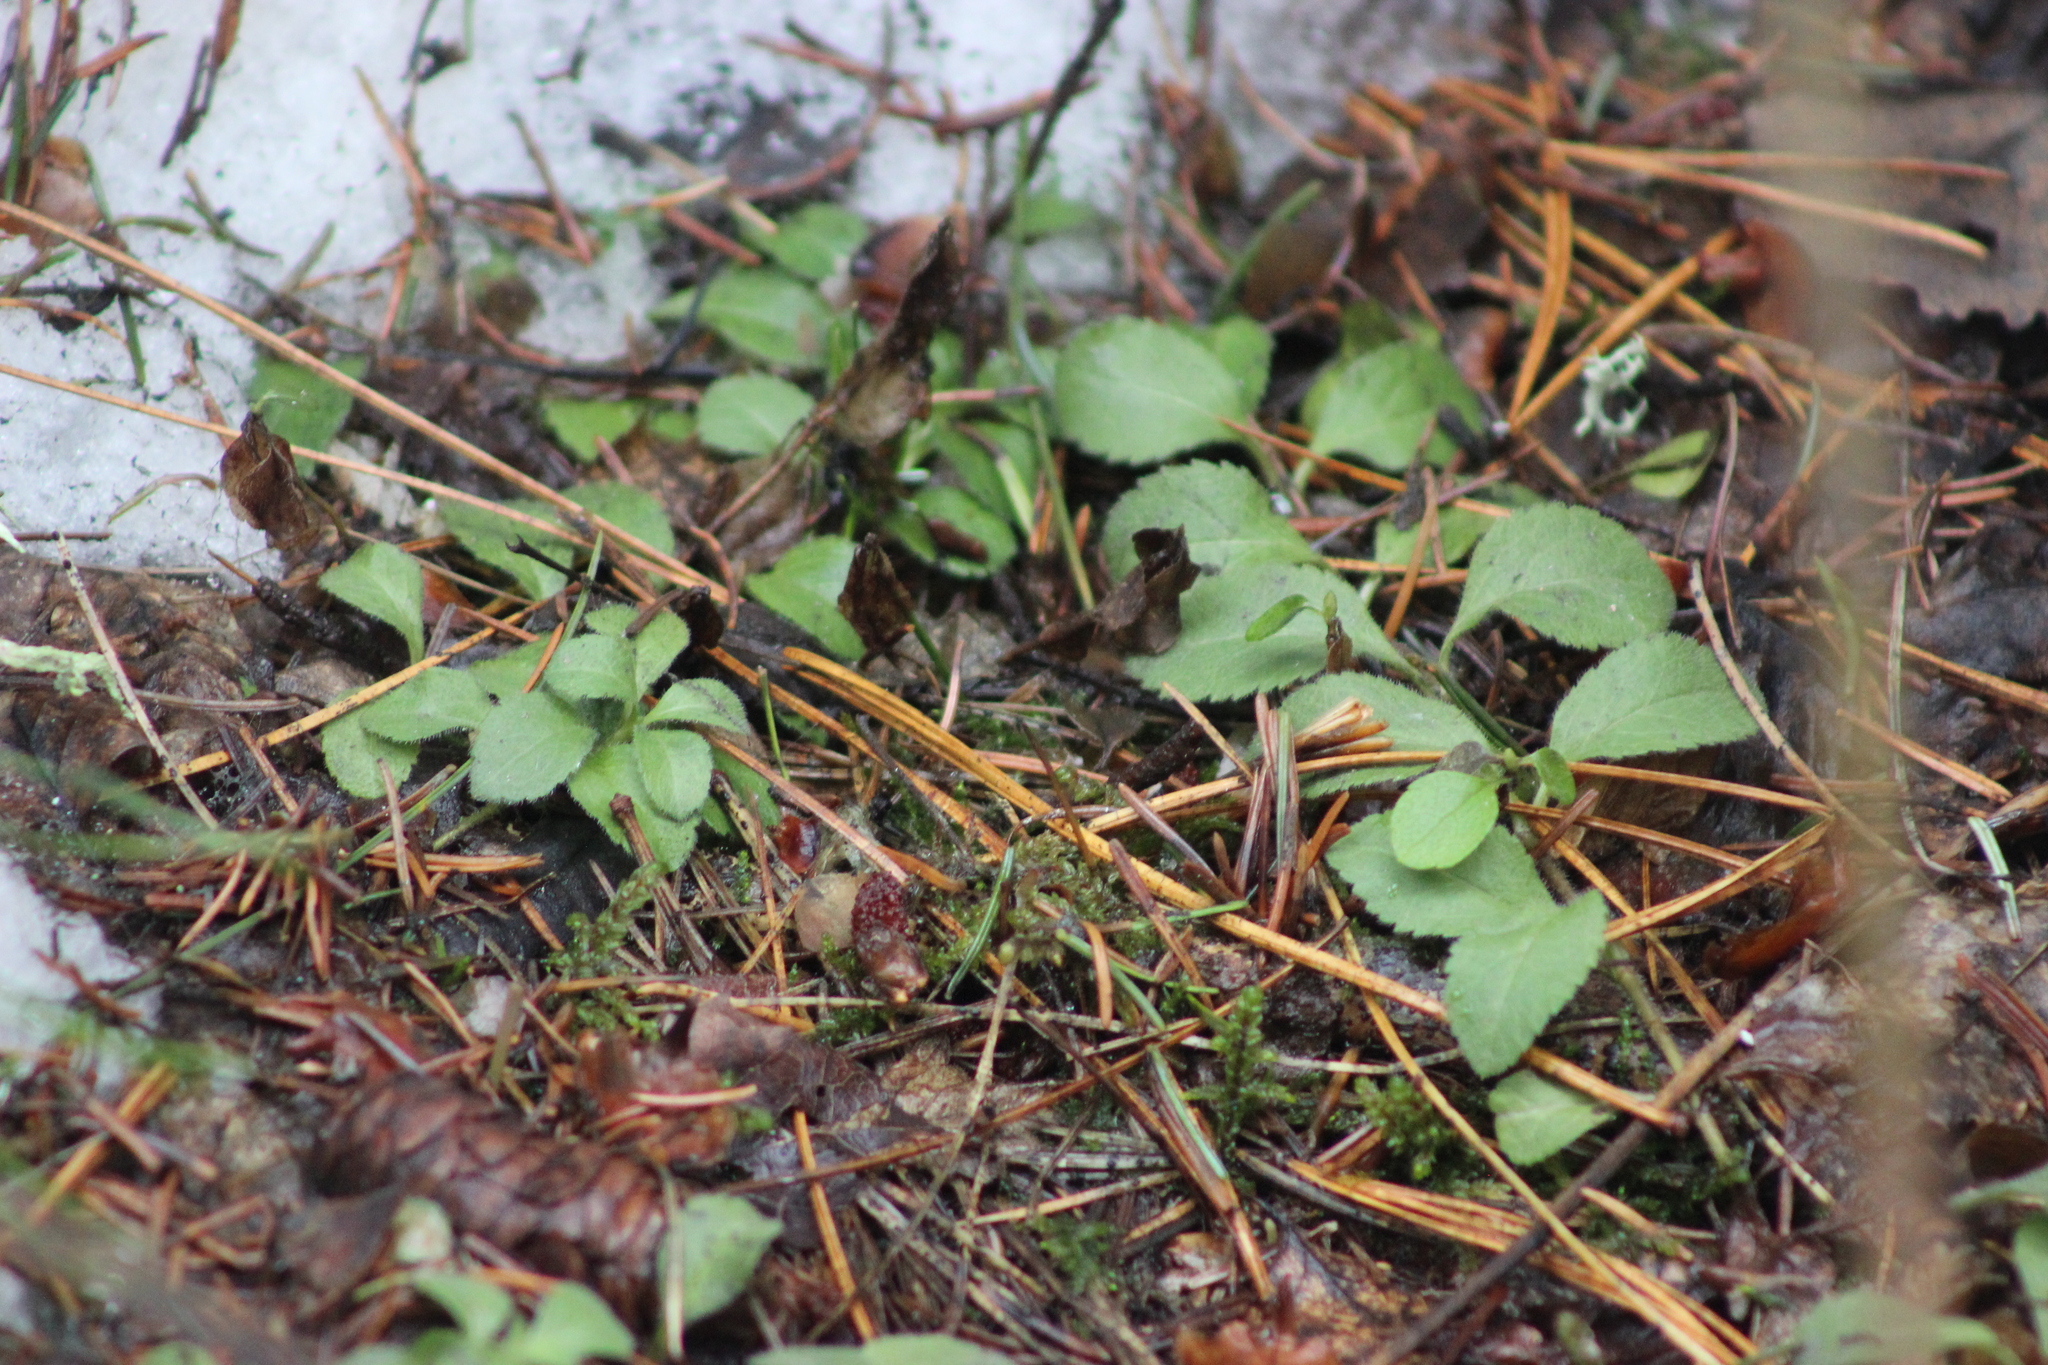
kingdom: Plantae
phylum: Tracheophyta
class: Magnoliopsida
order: Lamiales
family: Plantaginaceae
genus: Veronica
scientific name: Veronica officinalis
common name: Common speedwell
